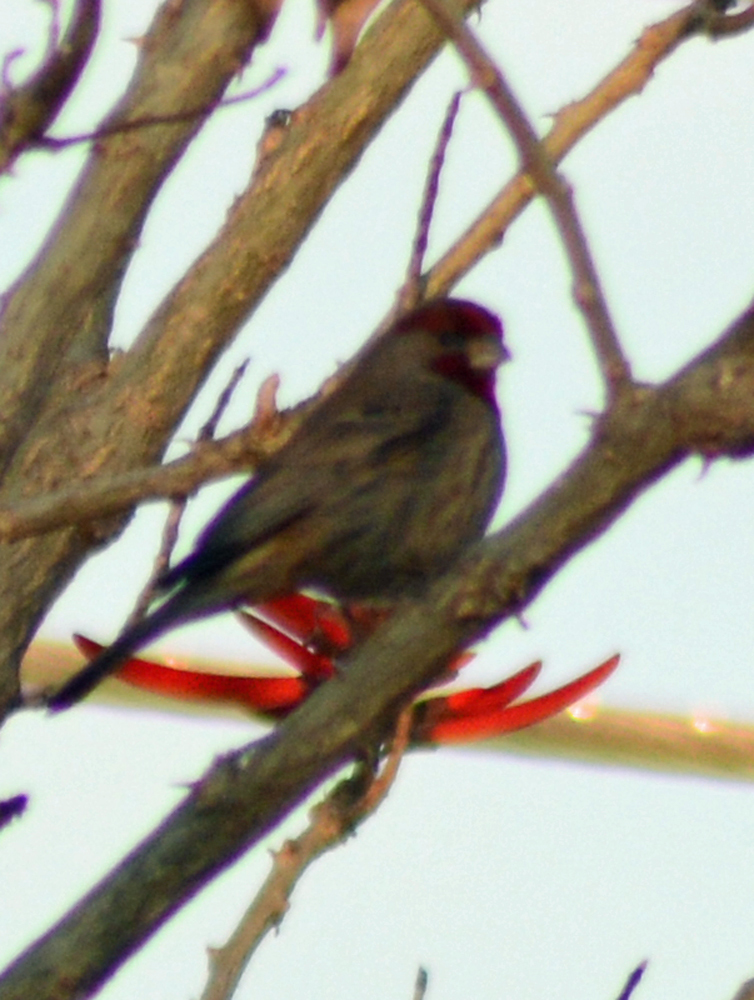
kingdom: Animalia
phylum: Chordata
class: Aves
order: Passeriformes
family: Fringillidae
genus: Haemorhous
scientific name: Haemorhous mexicanus
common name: House finch
